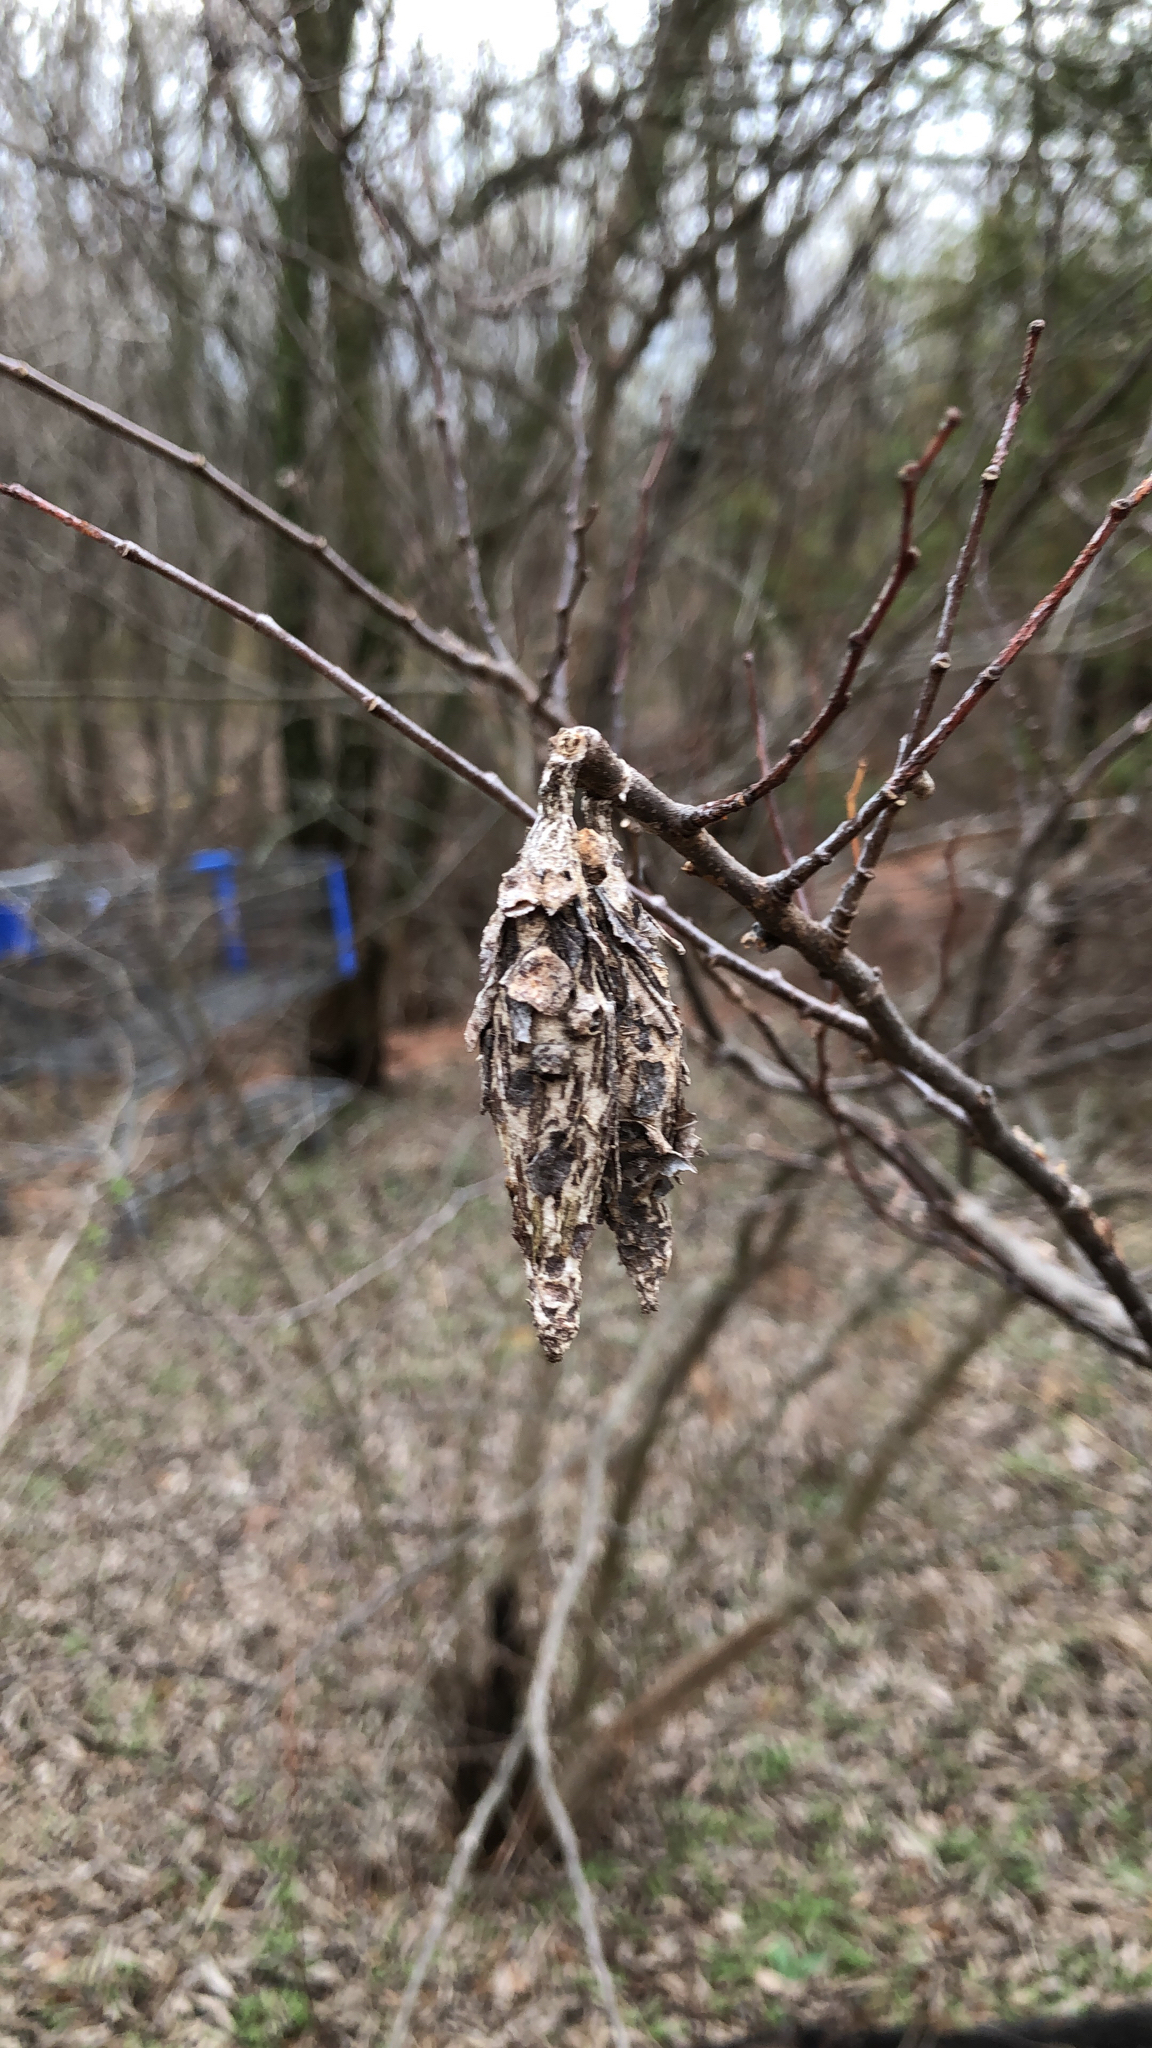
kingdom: Animalia
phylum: Arthropoda
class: Insecta
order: Lepidoptera
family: Psychidae
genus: Thyridopteryx
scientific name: Thyridopteryx ephemeraeformis
